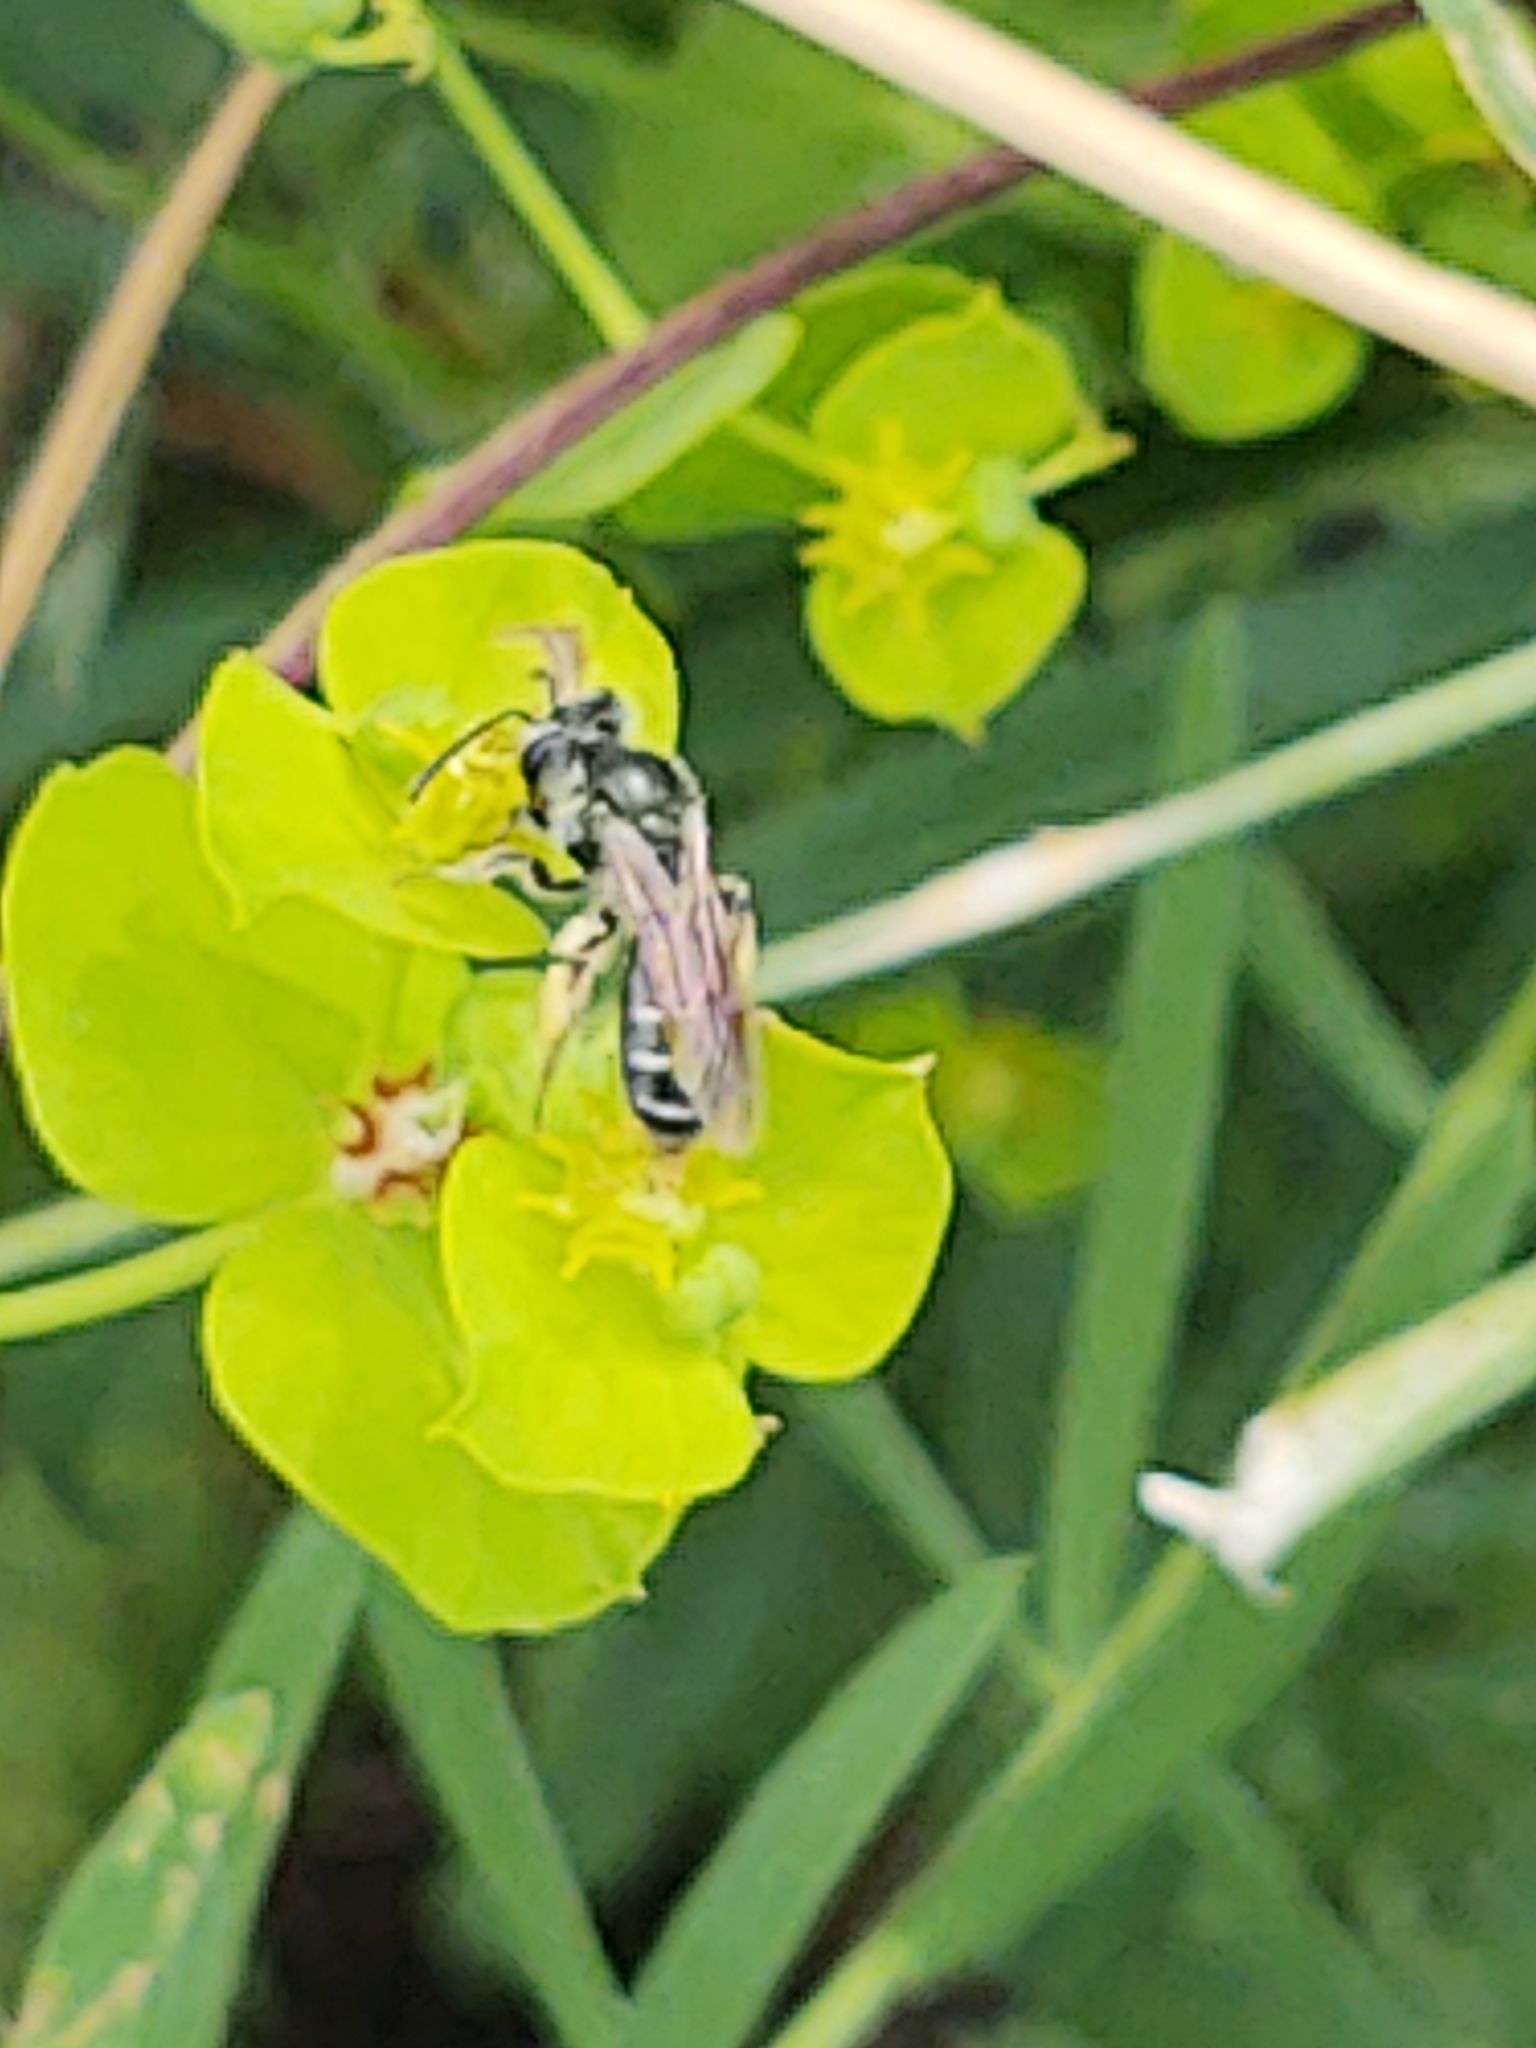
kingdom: Animalia
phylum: Arthropoda
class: Insecta
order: Hymenoptera
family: Andrenidae
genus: Andrena
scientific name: Andrena
